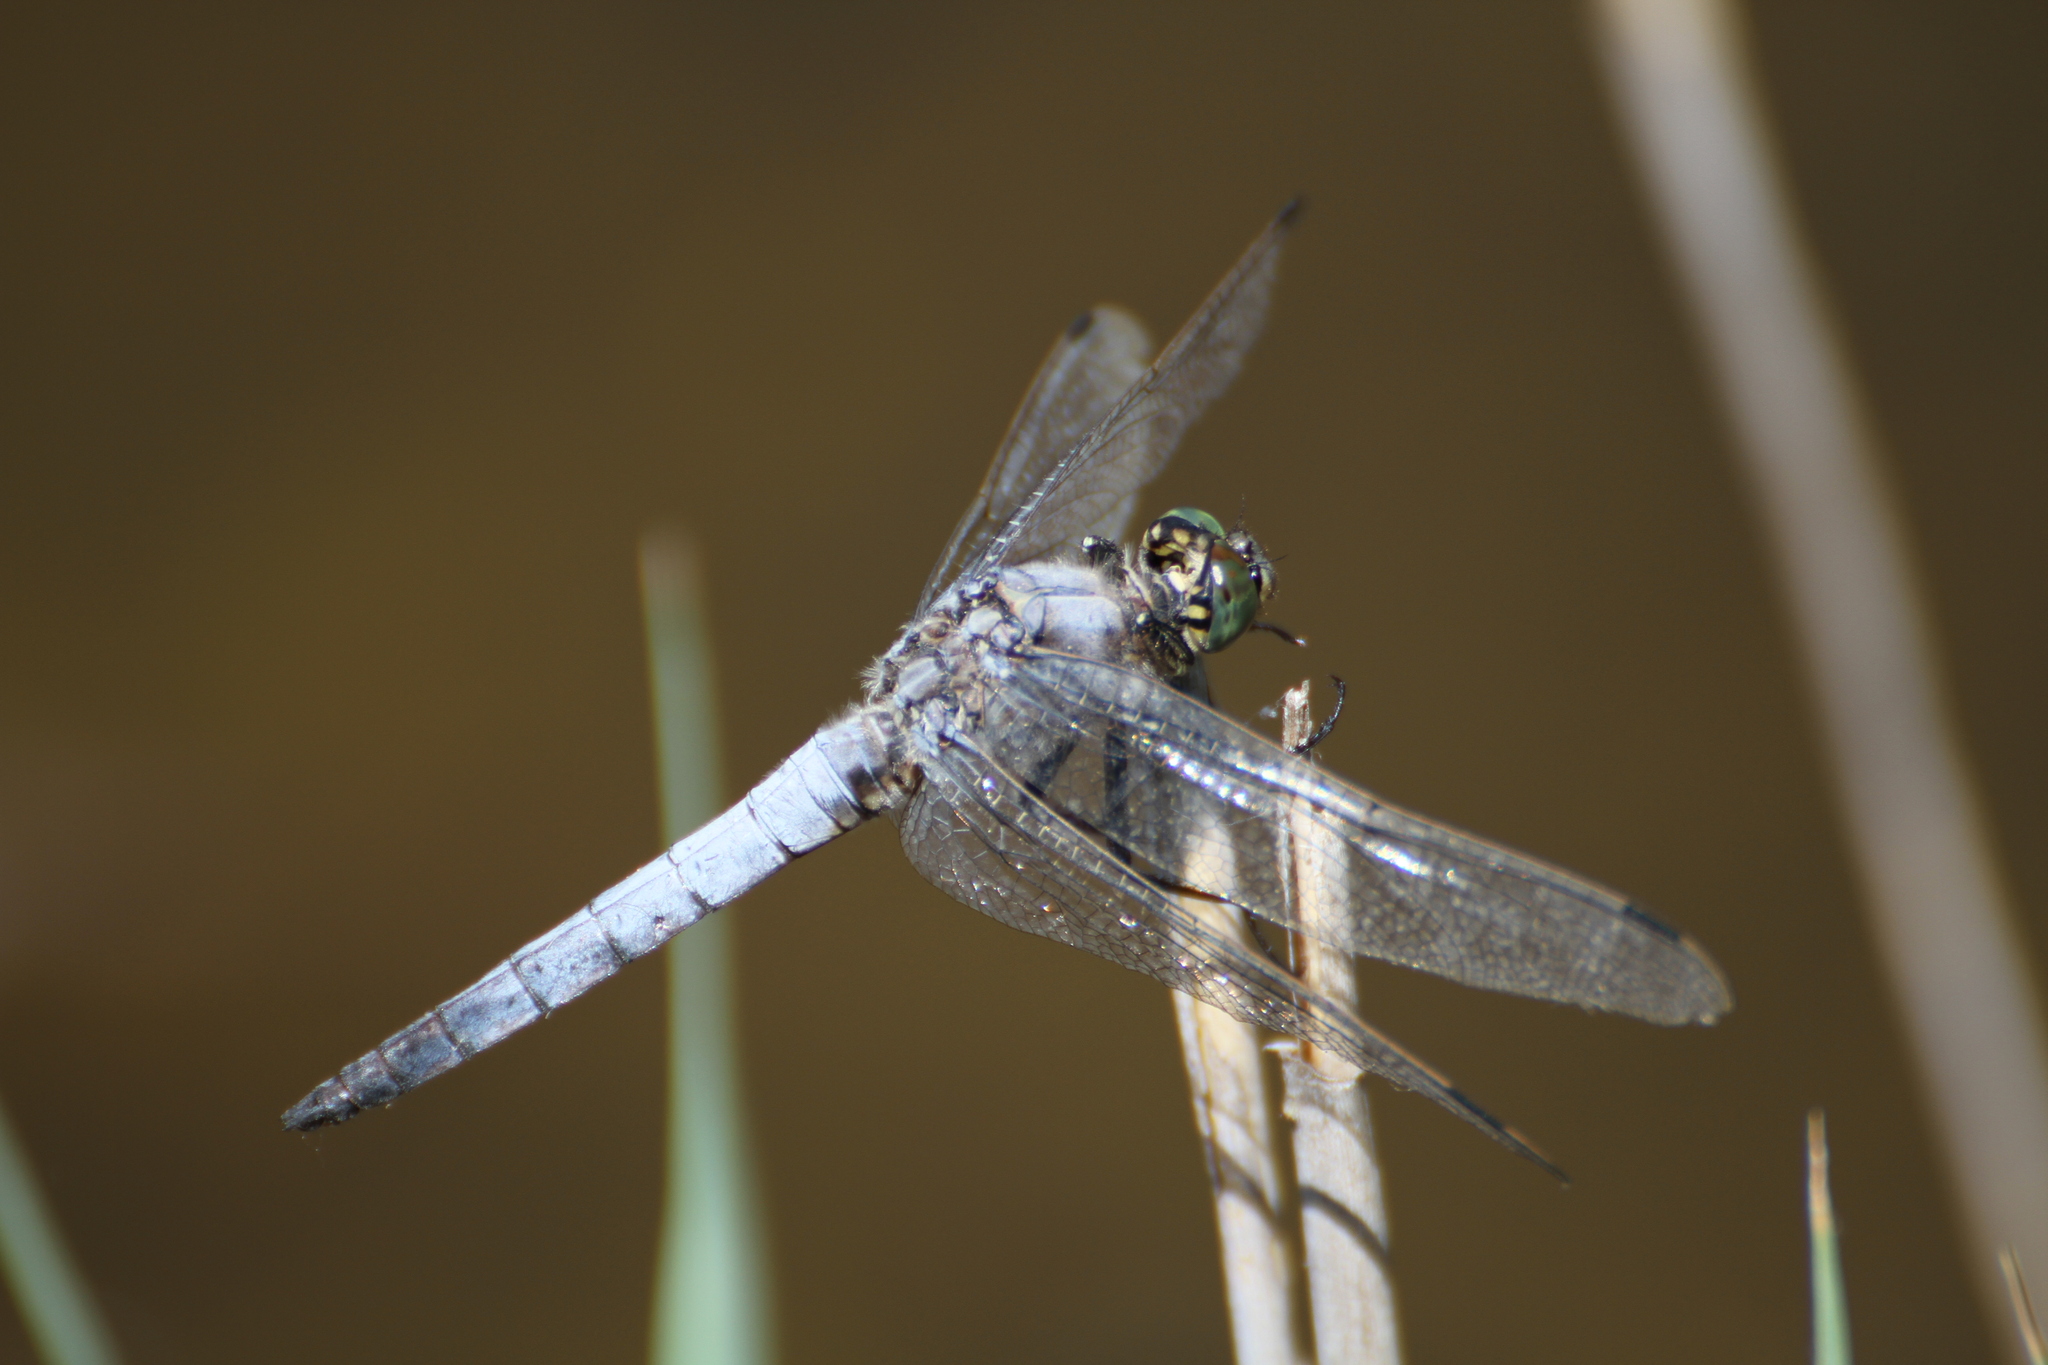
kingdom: Animalia
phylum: Arthropoda
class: Insecta
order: Odonata
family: Libellulidae
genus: Orthetrum
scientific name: Orthetrum cancellatum
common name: Black-tailed skimmer
